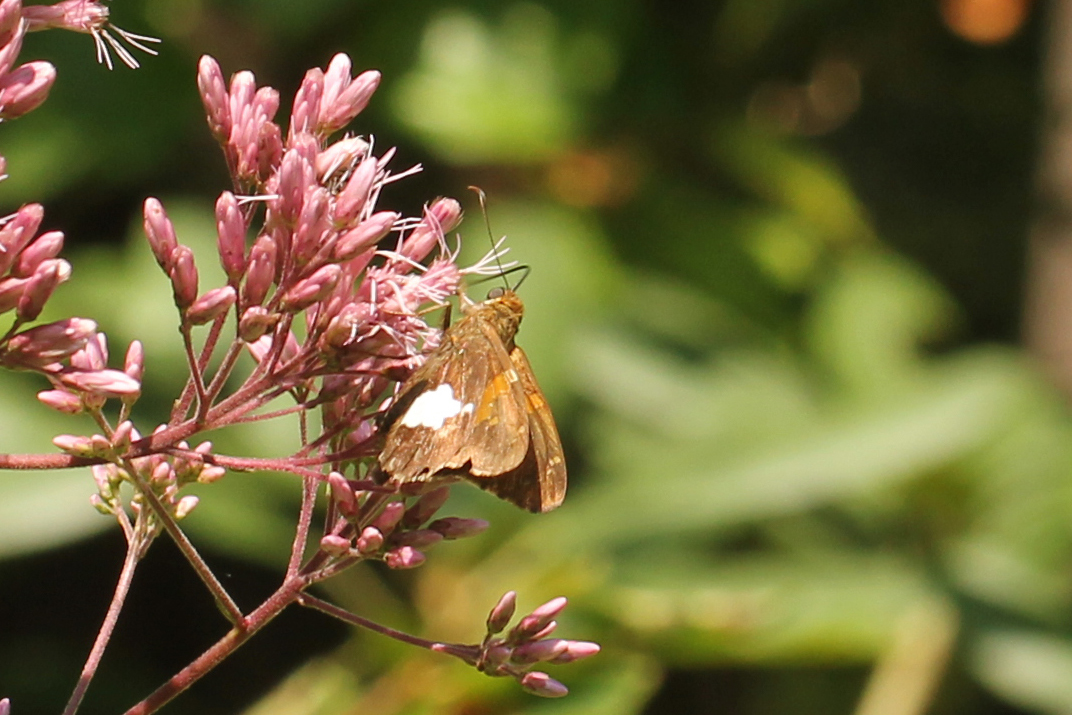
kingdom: Animalia
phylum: Arthropoda
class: Insecta
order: Lepidoptera
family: Hesperiidae
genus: Epargyreus
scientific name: Epargyreus clarus
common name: Silver-spotted skipper
